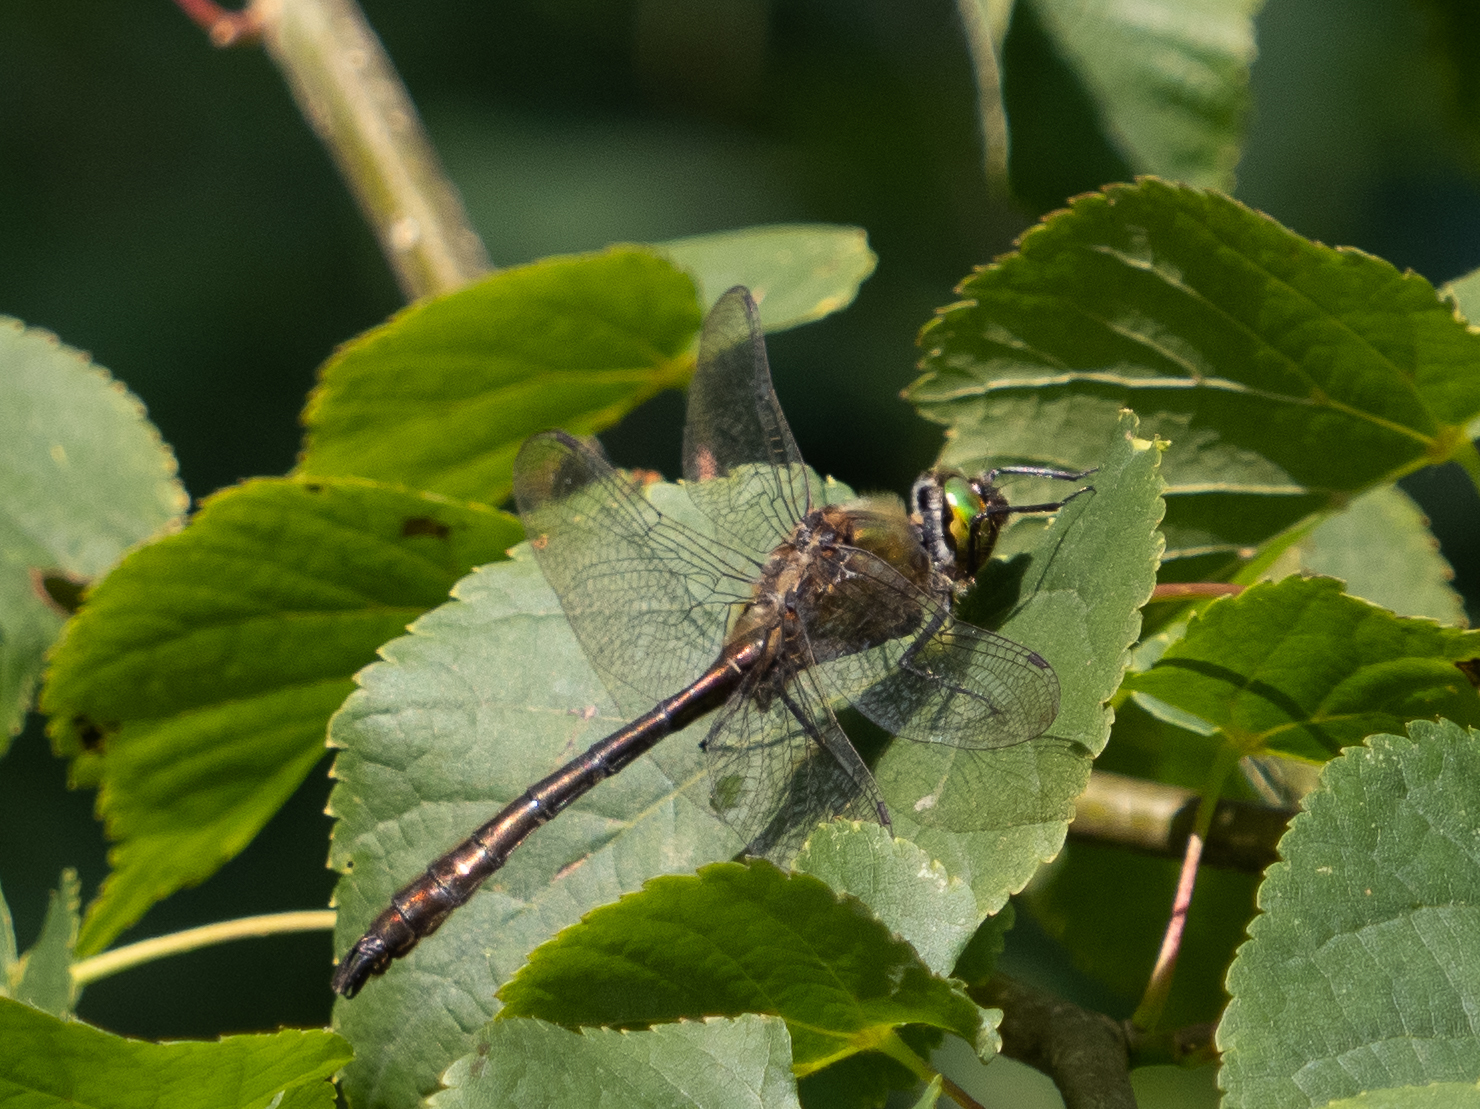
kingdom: Animalia
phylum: Arthropoda
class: Insecta
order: Odonata
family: Corduliidae
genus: Cordulia
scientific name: Cordulia aenea
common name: Downy emerald
